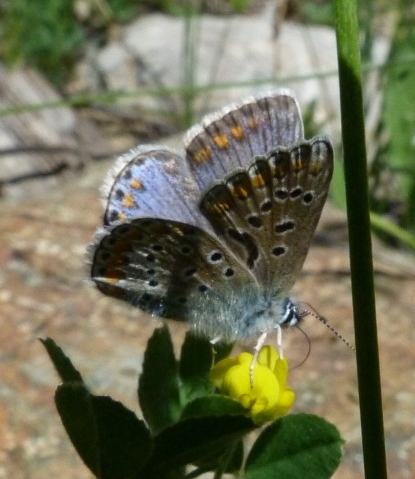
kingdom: Animalia
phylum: Arthropoda
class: Insecta
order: Lepidoptera
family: Lycaenidae
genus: Polyommatus
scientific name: Polyommatus icarus
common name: Common blue
